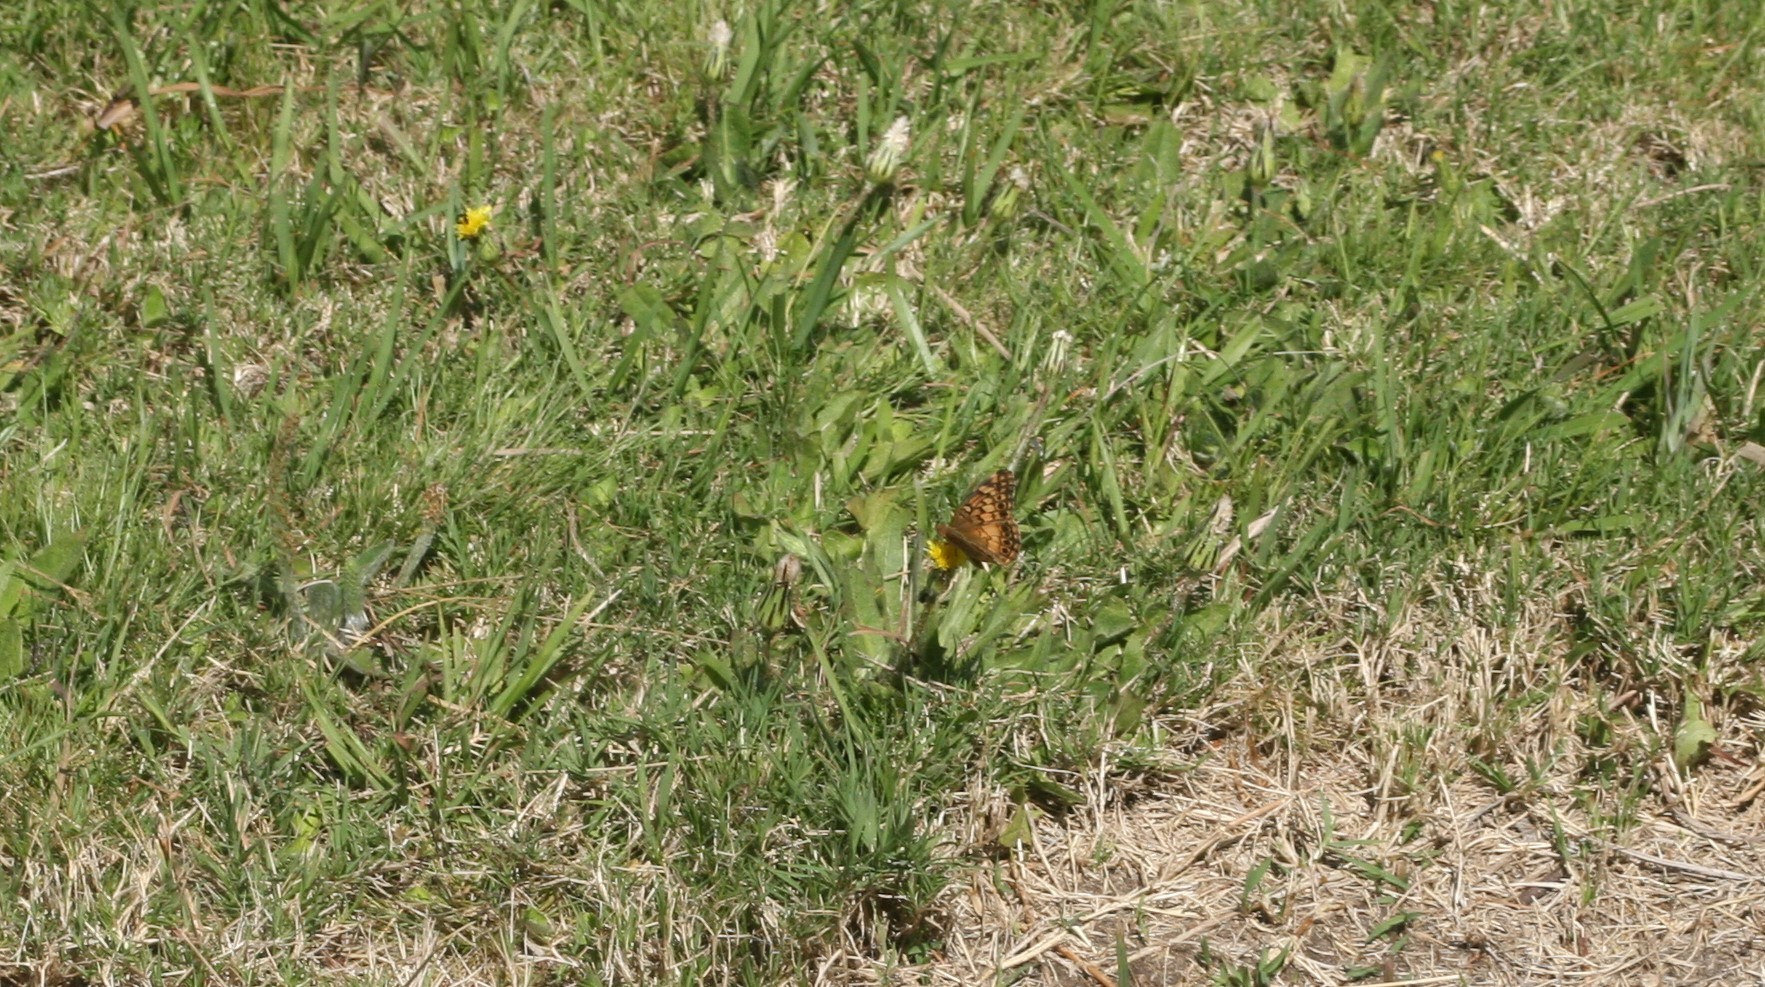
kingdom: Animalia
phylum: Arthropoda
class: Insecta
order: Lepidoptera
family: Nymphalidae
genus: Euptoieta
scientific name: Euptoieta hortensia
